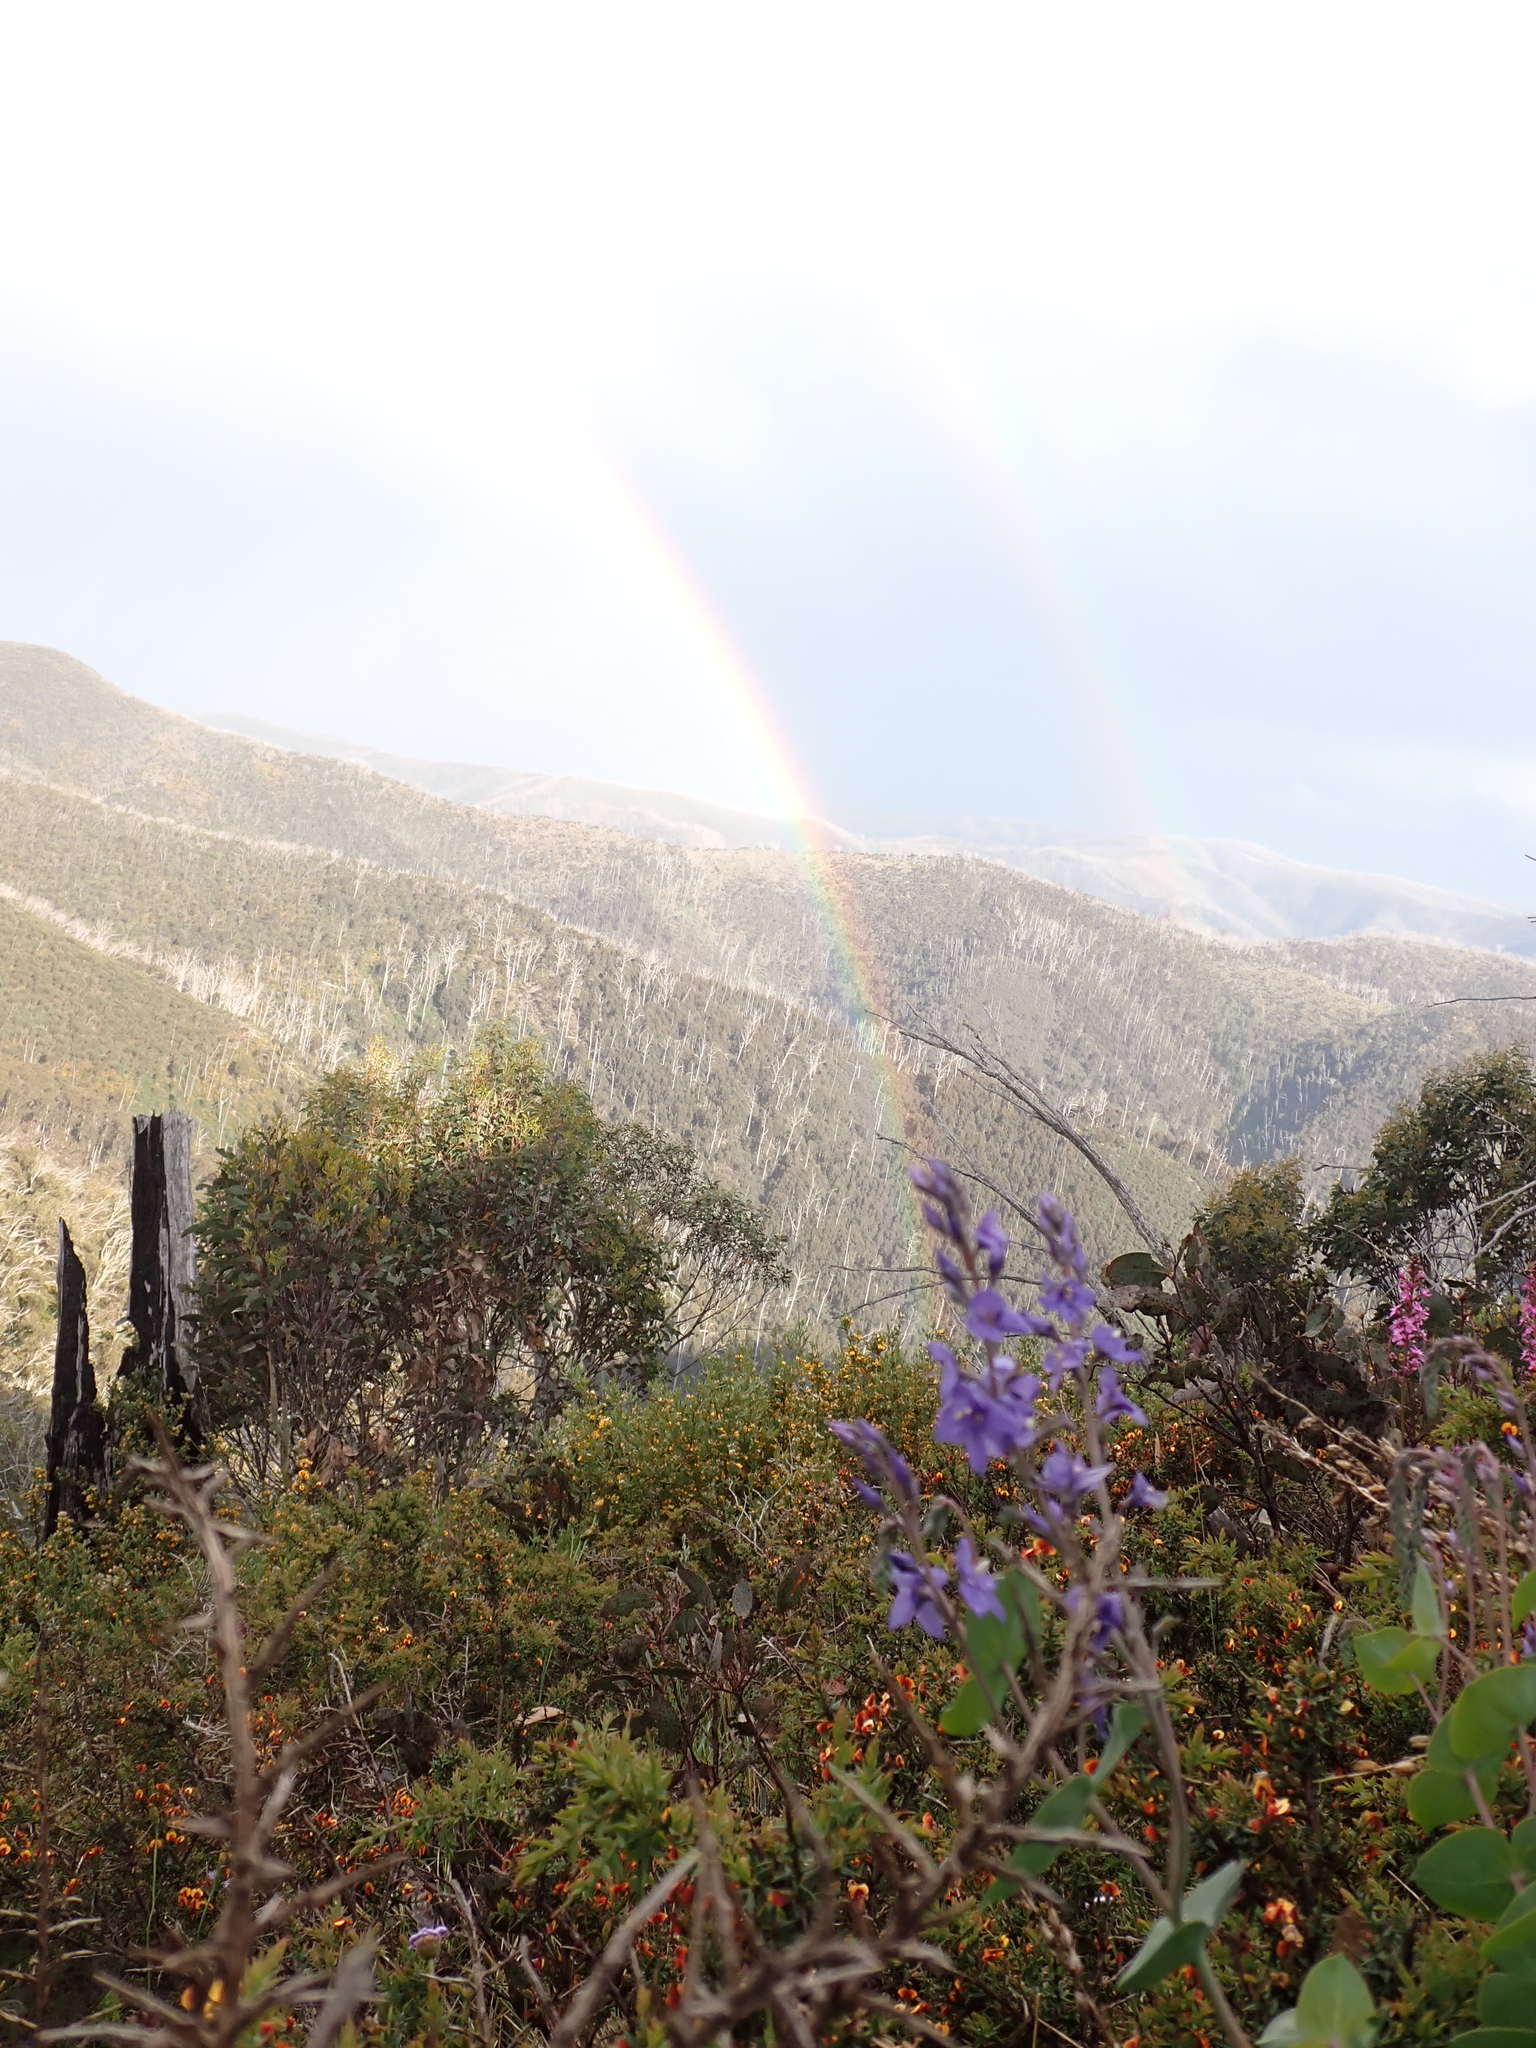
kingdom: Plantae
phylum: Tracheophyta
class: Magnoliopsida
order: Lamiales
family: Plantaginaceae
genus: Veronica
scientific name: Veronica perfoliata
